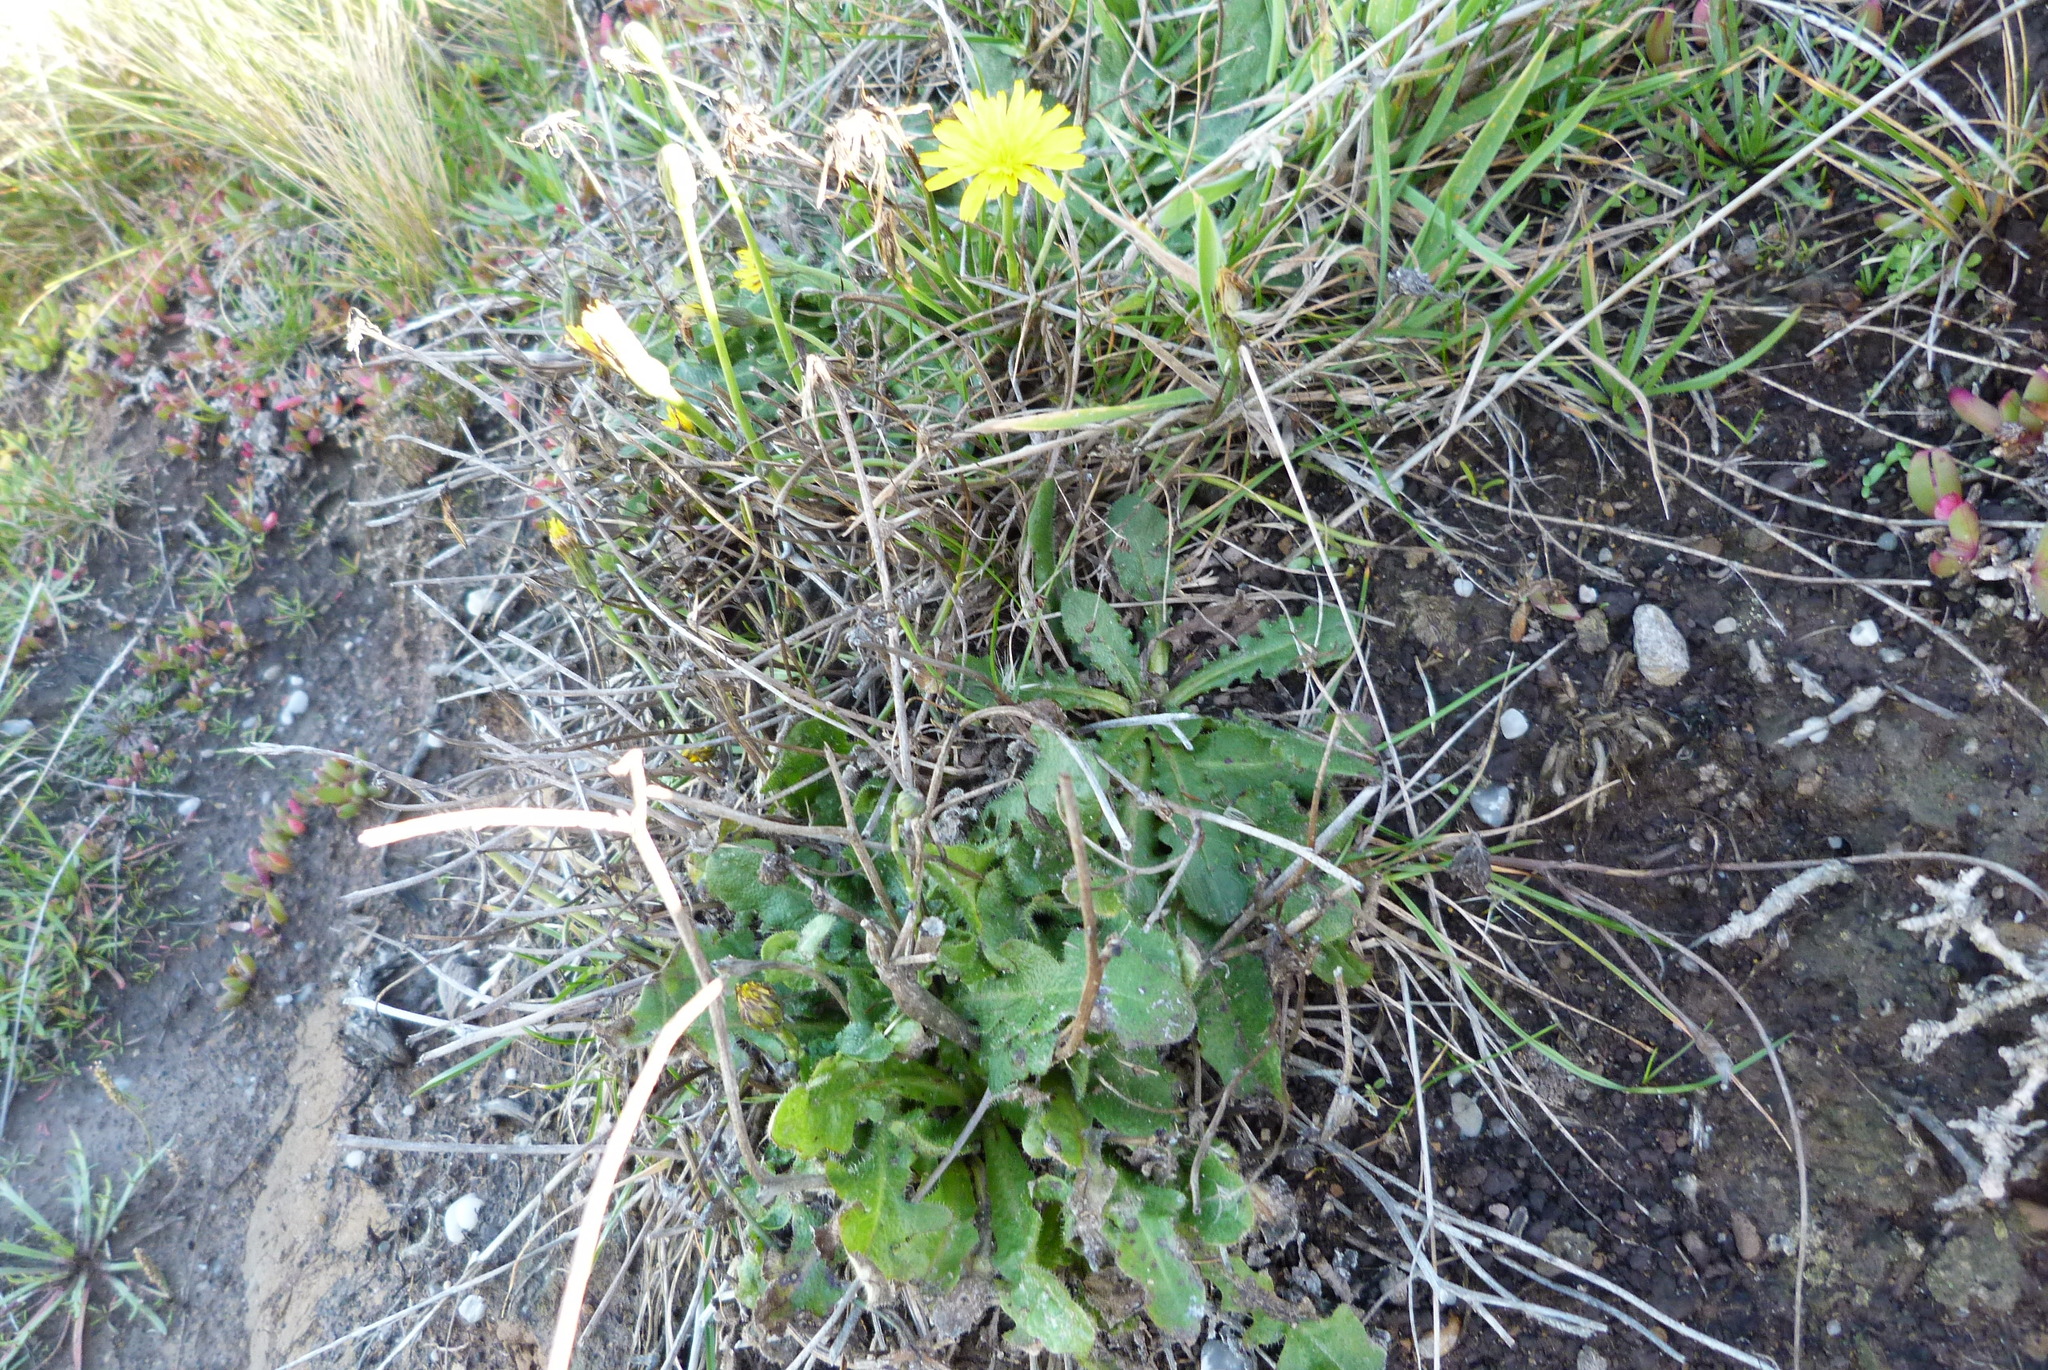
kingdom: Plantae
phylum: Tracheophyta
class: Magnoliopsida
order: Asterales
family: Asteraceae
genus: Hypochaeris
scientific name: Hypochaeris radicata
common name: Flatweed
